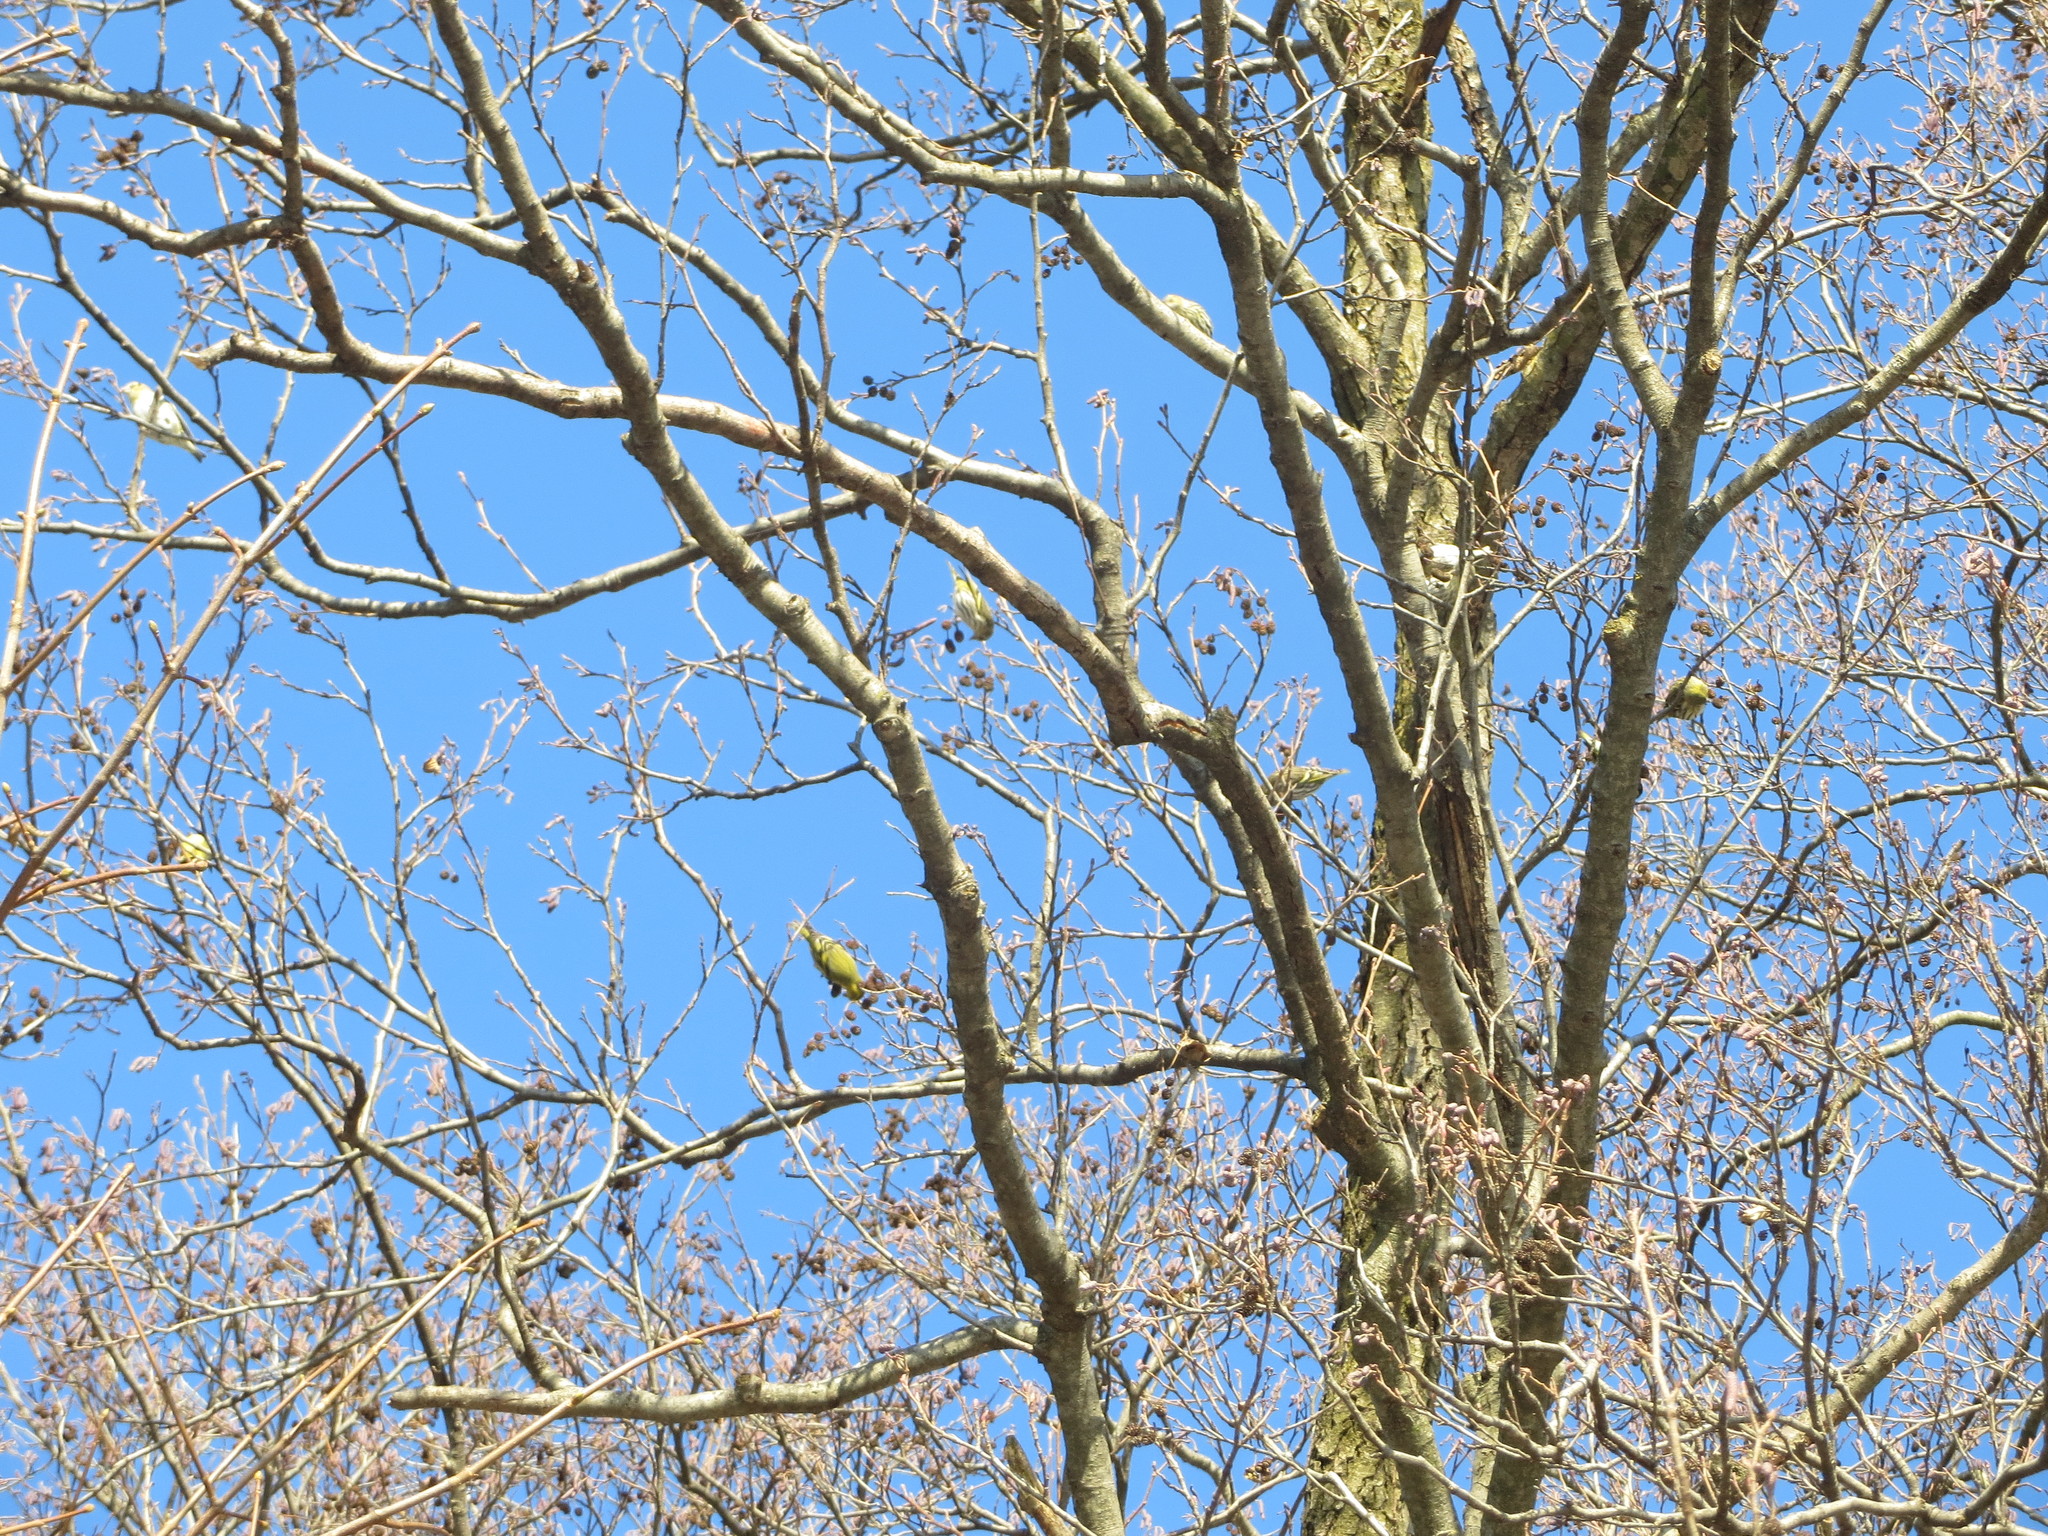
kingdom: Animalia
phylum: Chordata
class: Aves
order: Passeriformes
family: Fringillidae
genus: Spinus
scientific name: Spinus spinus
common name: Eurasian siskin
